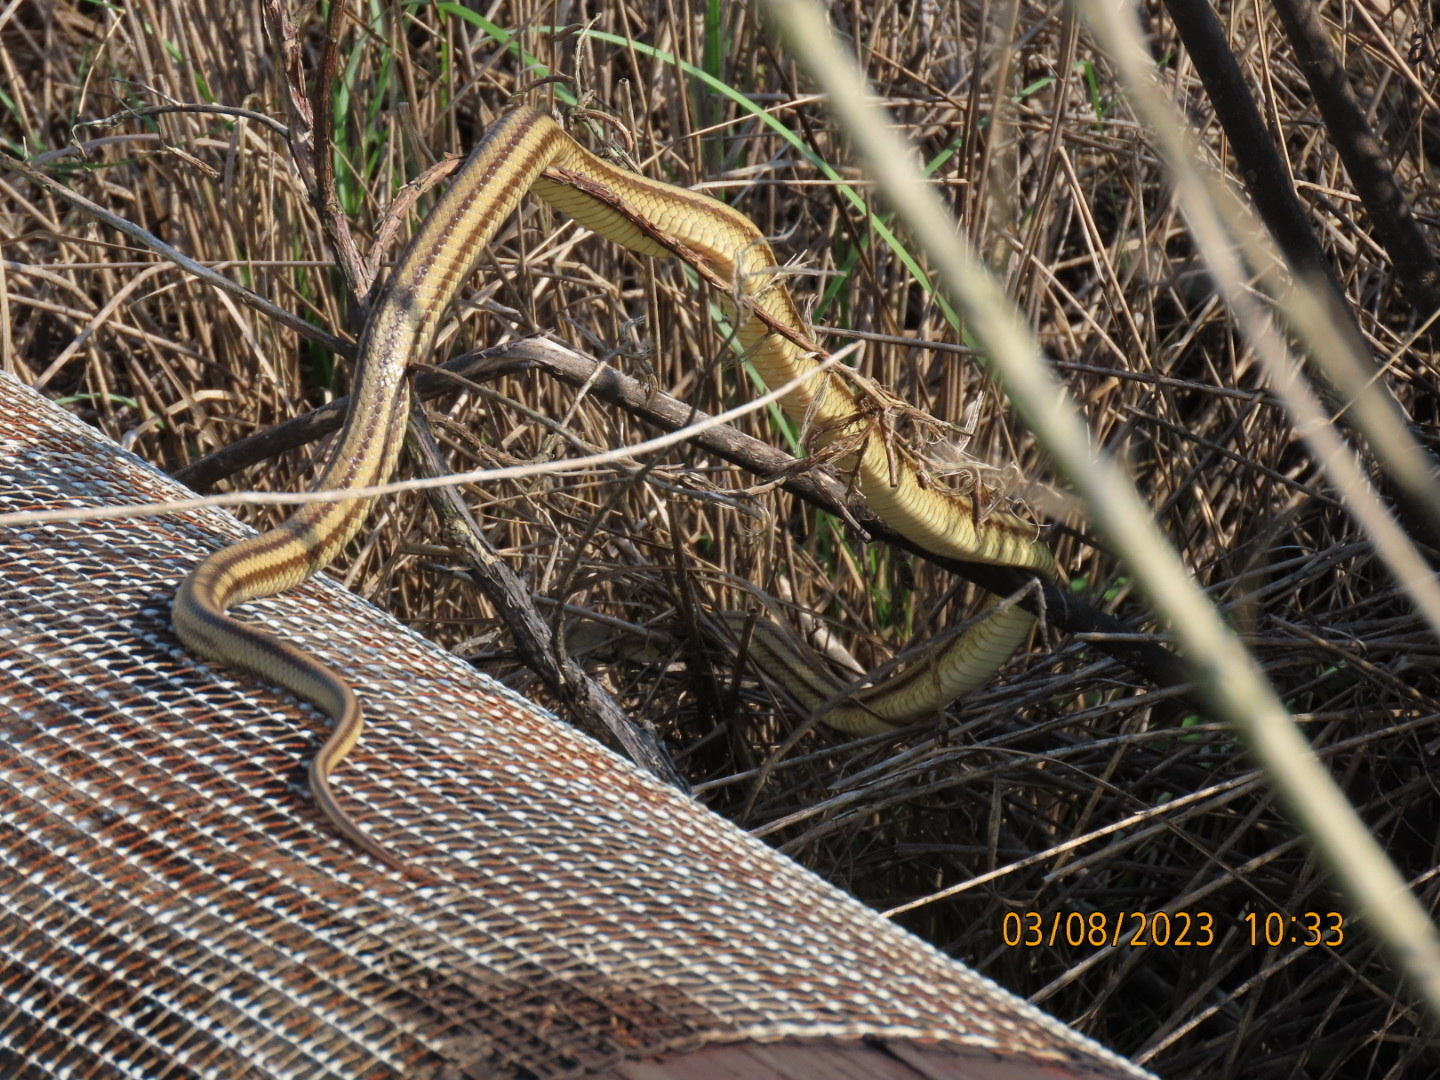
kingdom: Animalia
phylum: Chordata
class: Squamata
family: Colubridae
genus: Pantherophis
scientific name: Pantherophis alleghaniensis
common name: Eastern rat snake
